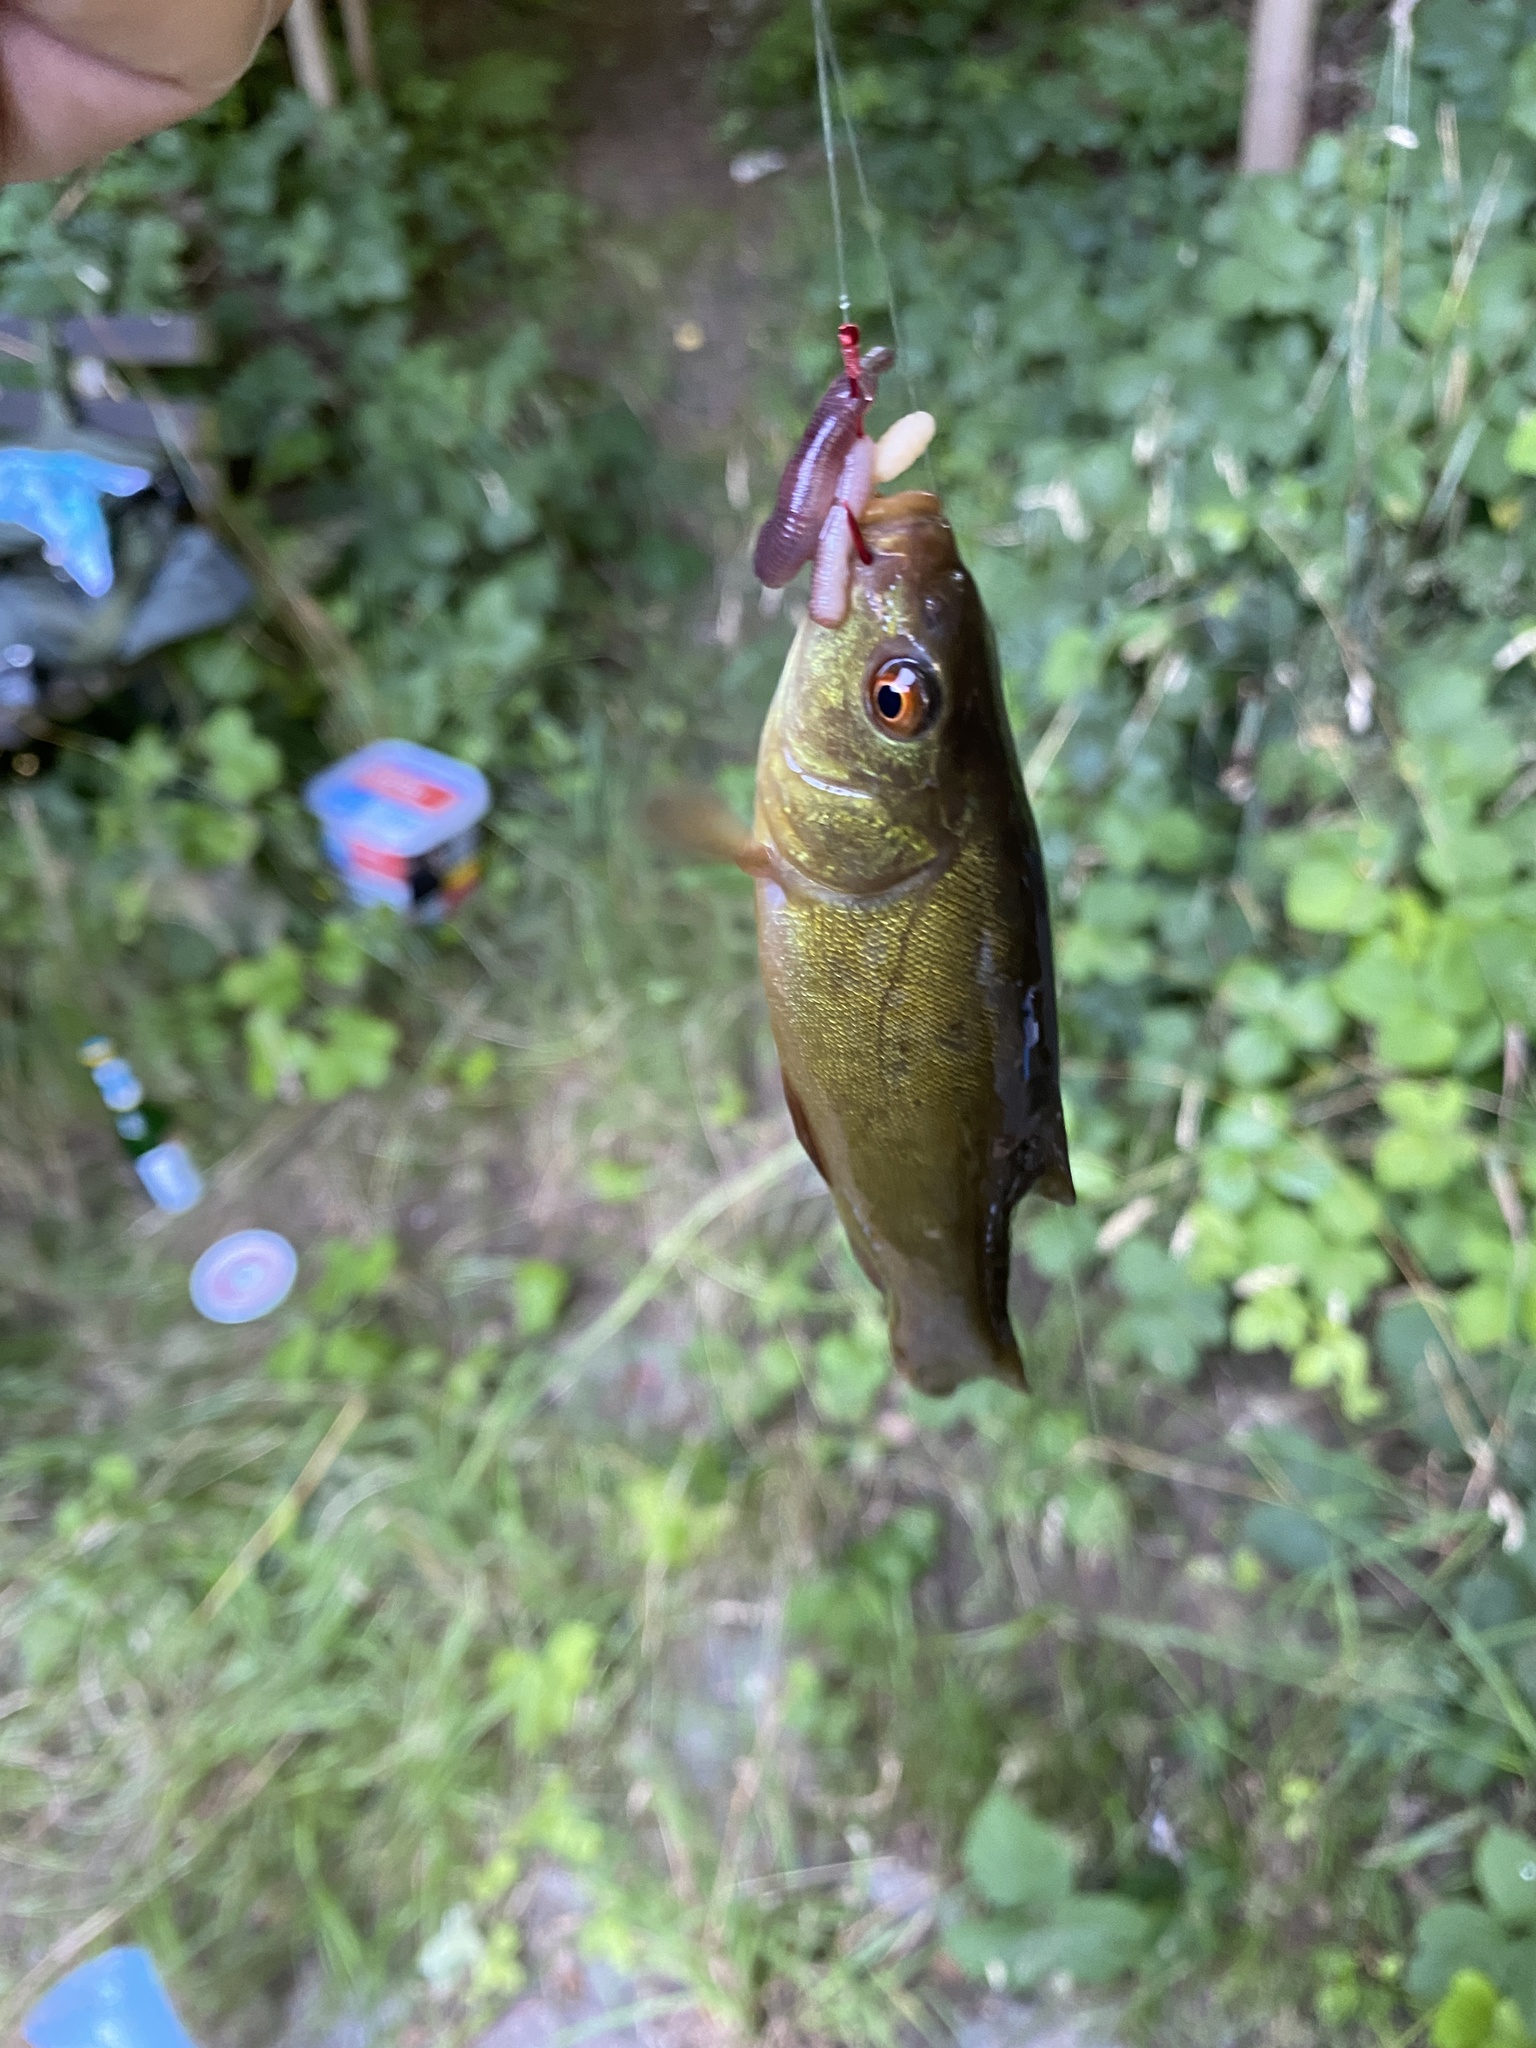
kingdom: Animalia
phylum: Chordata
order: Cypriniformes
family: Cyprinidae
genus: Tinca
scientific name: Tinca tinca
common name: Tench
